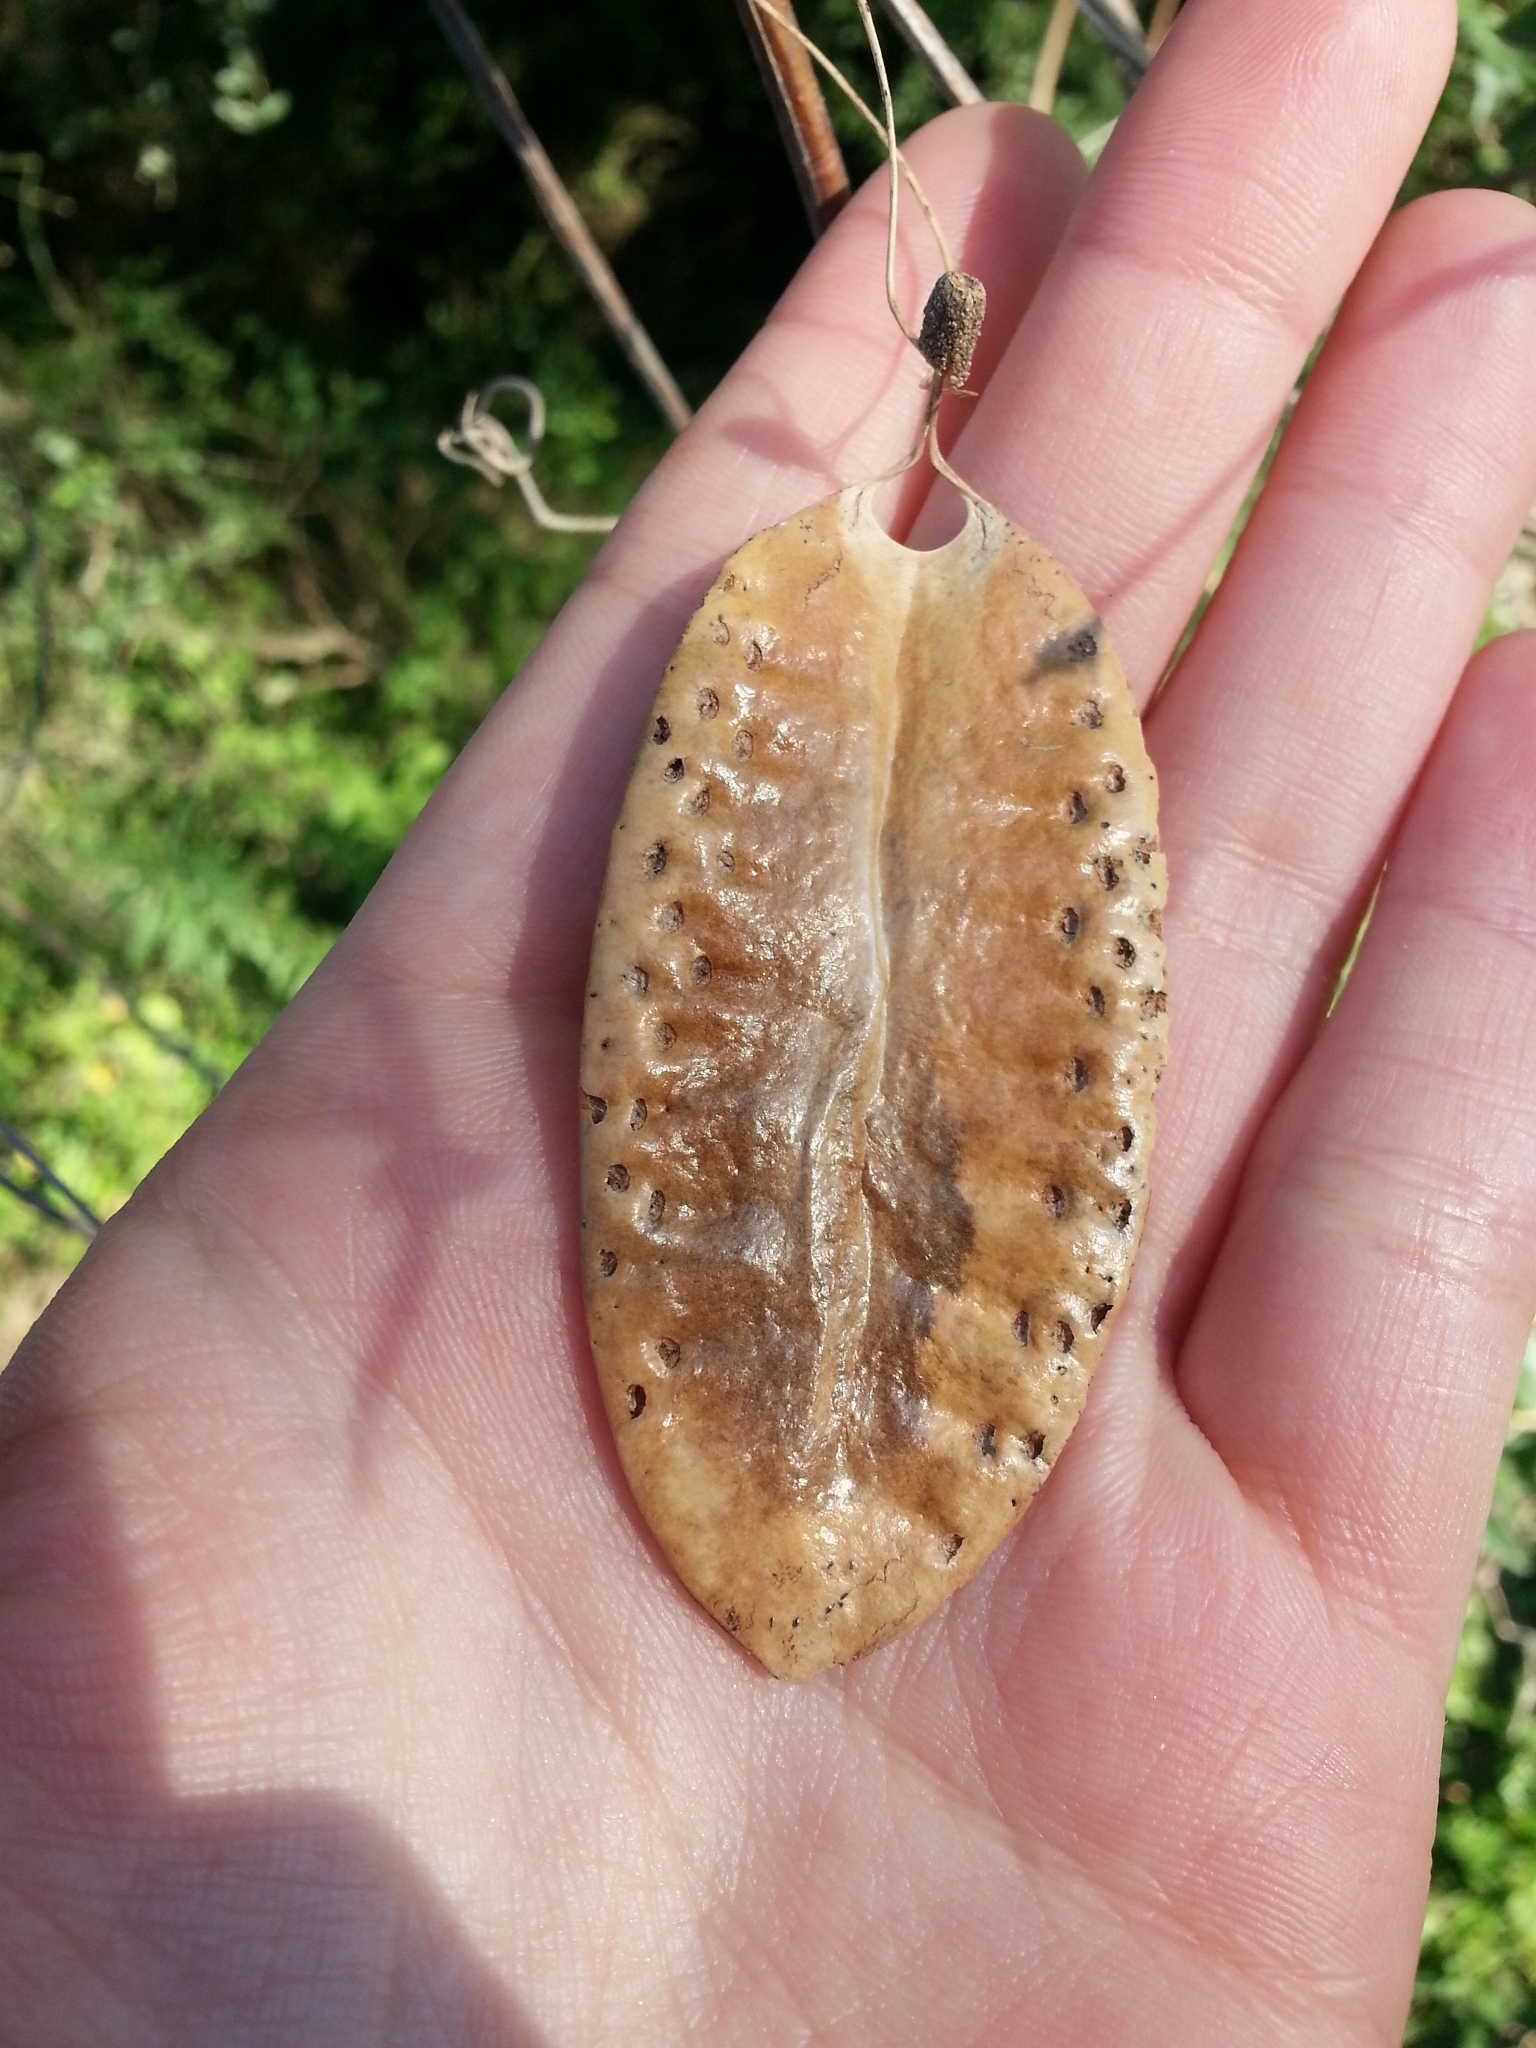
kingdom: Plantae
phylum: Tracheophyta
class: Magnoliopsida
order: Lamiales
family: Bignoniaceae
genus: Amphilophium
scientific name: Amphilophium carolinae
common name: Monkey's-comb
